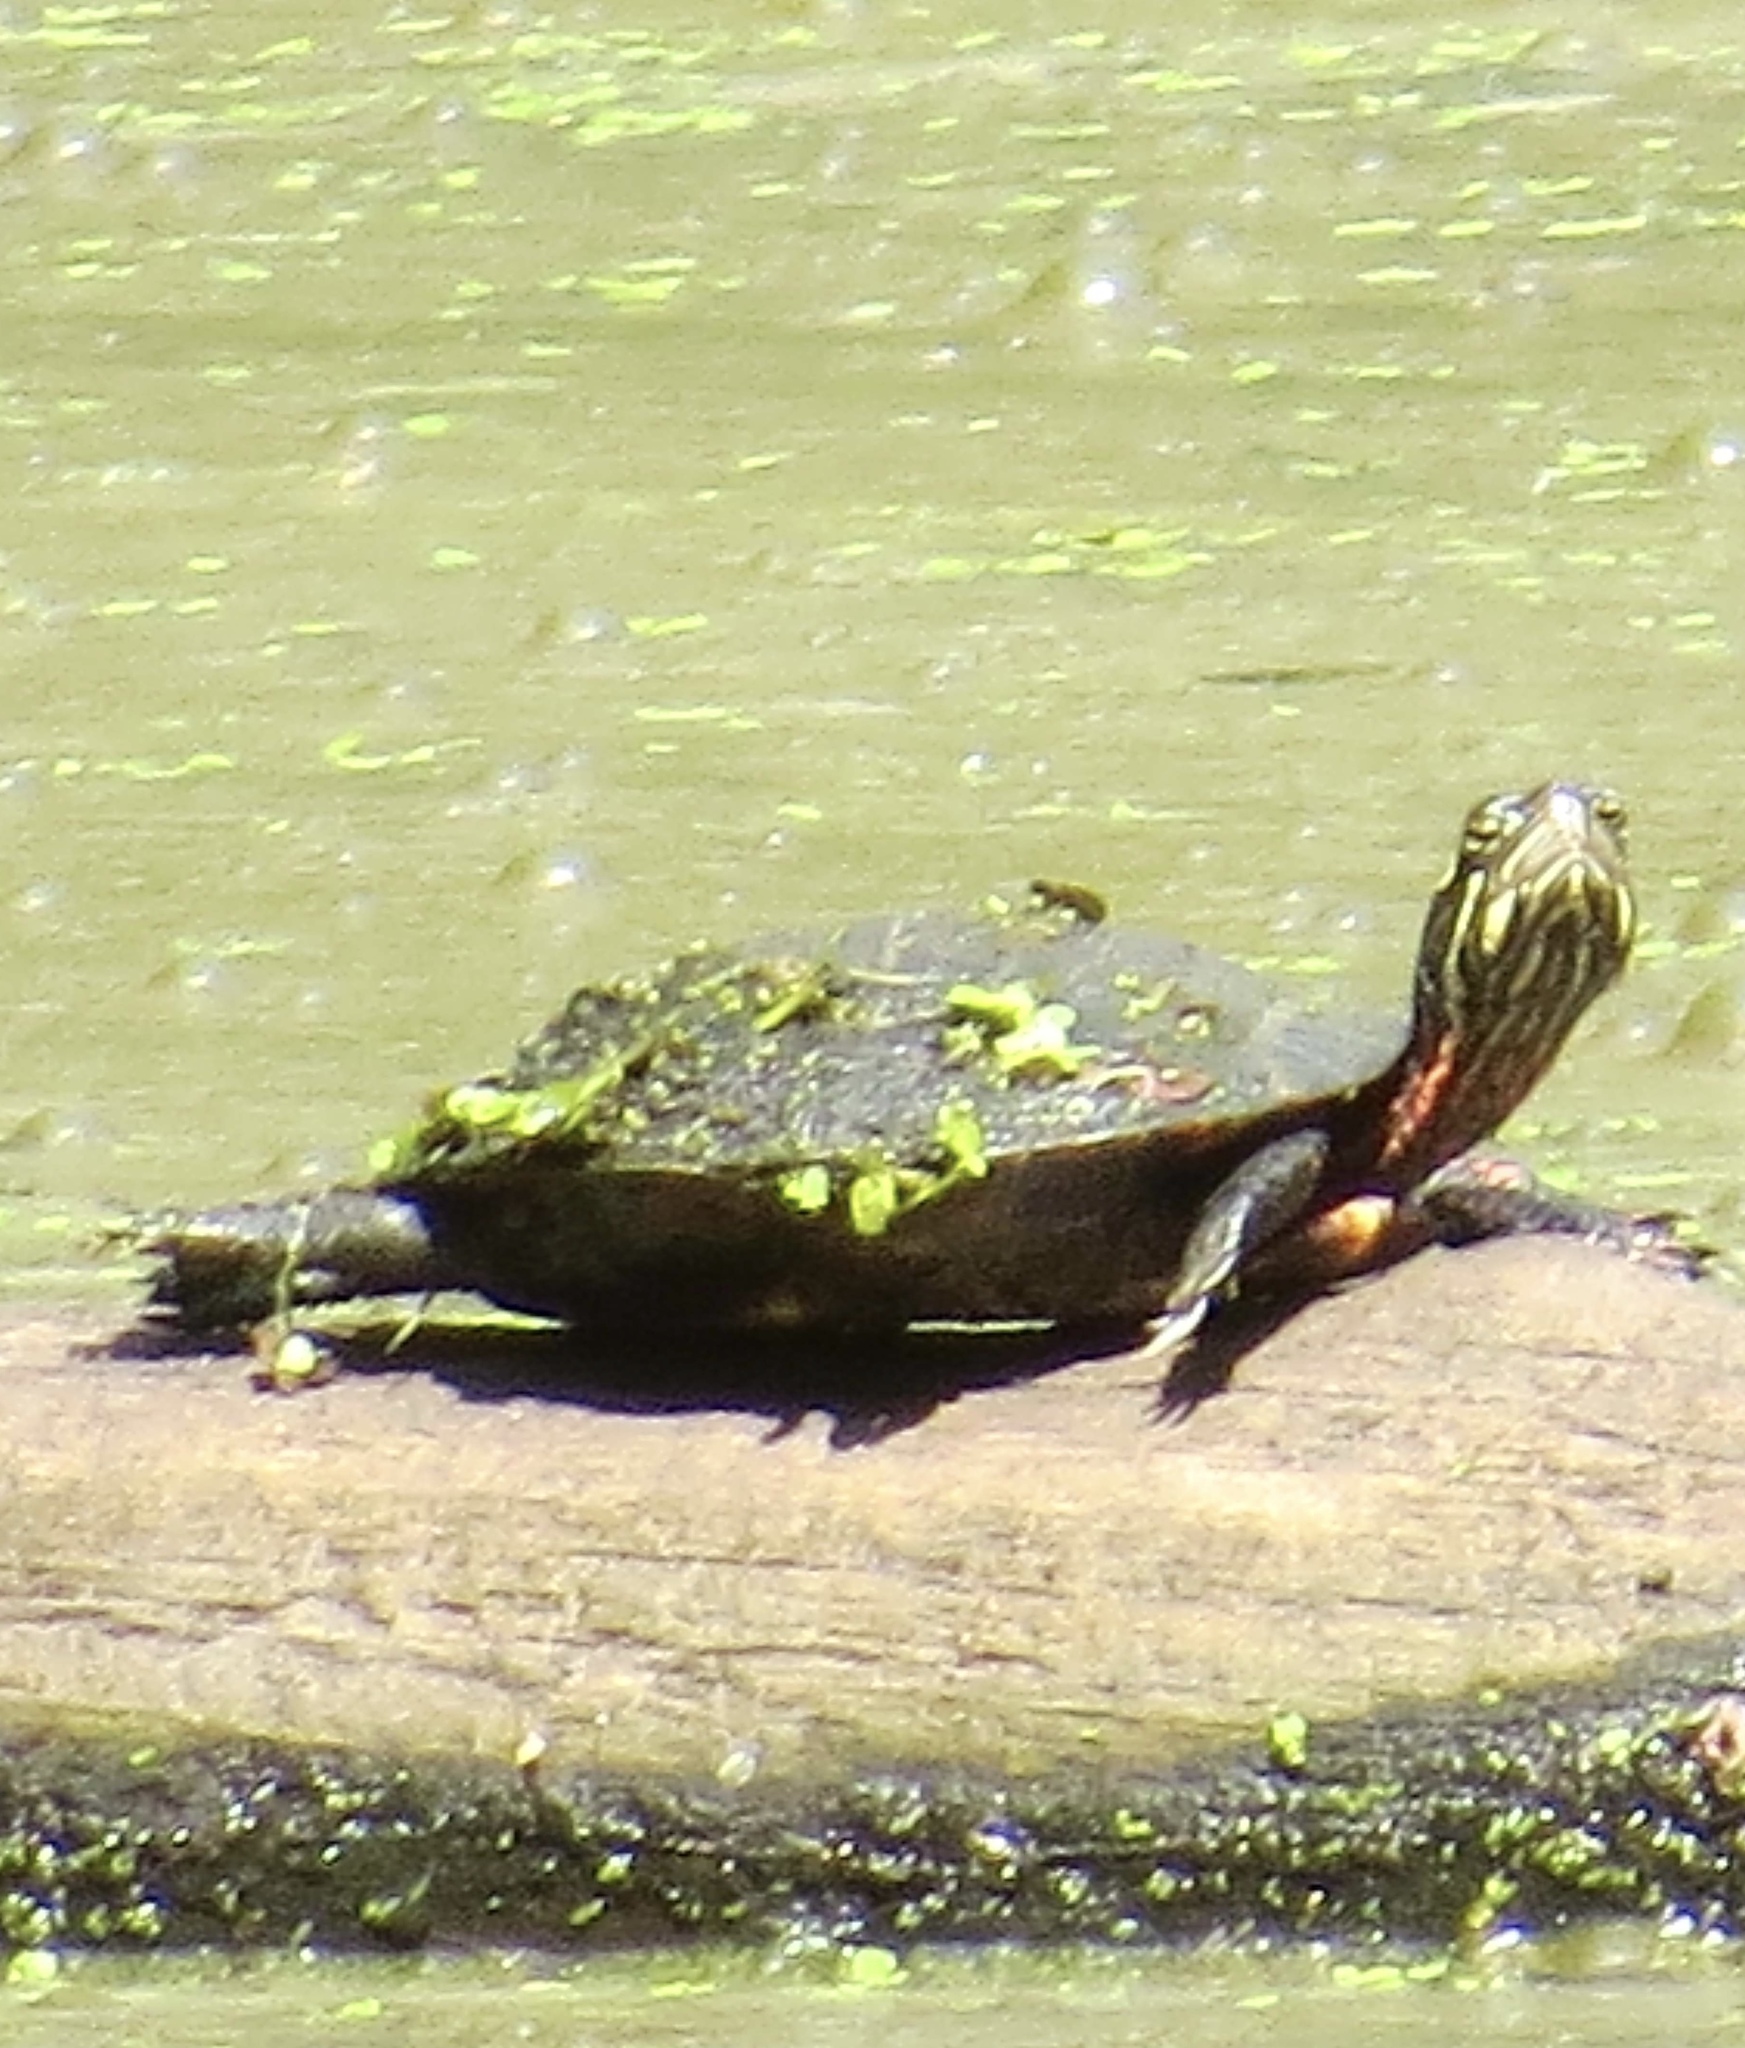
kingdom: Animalia
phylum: Chordata
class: Testudines
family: Emydidae
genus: Chrysemys
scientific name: Chrysemys picta
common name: Painted turtle
